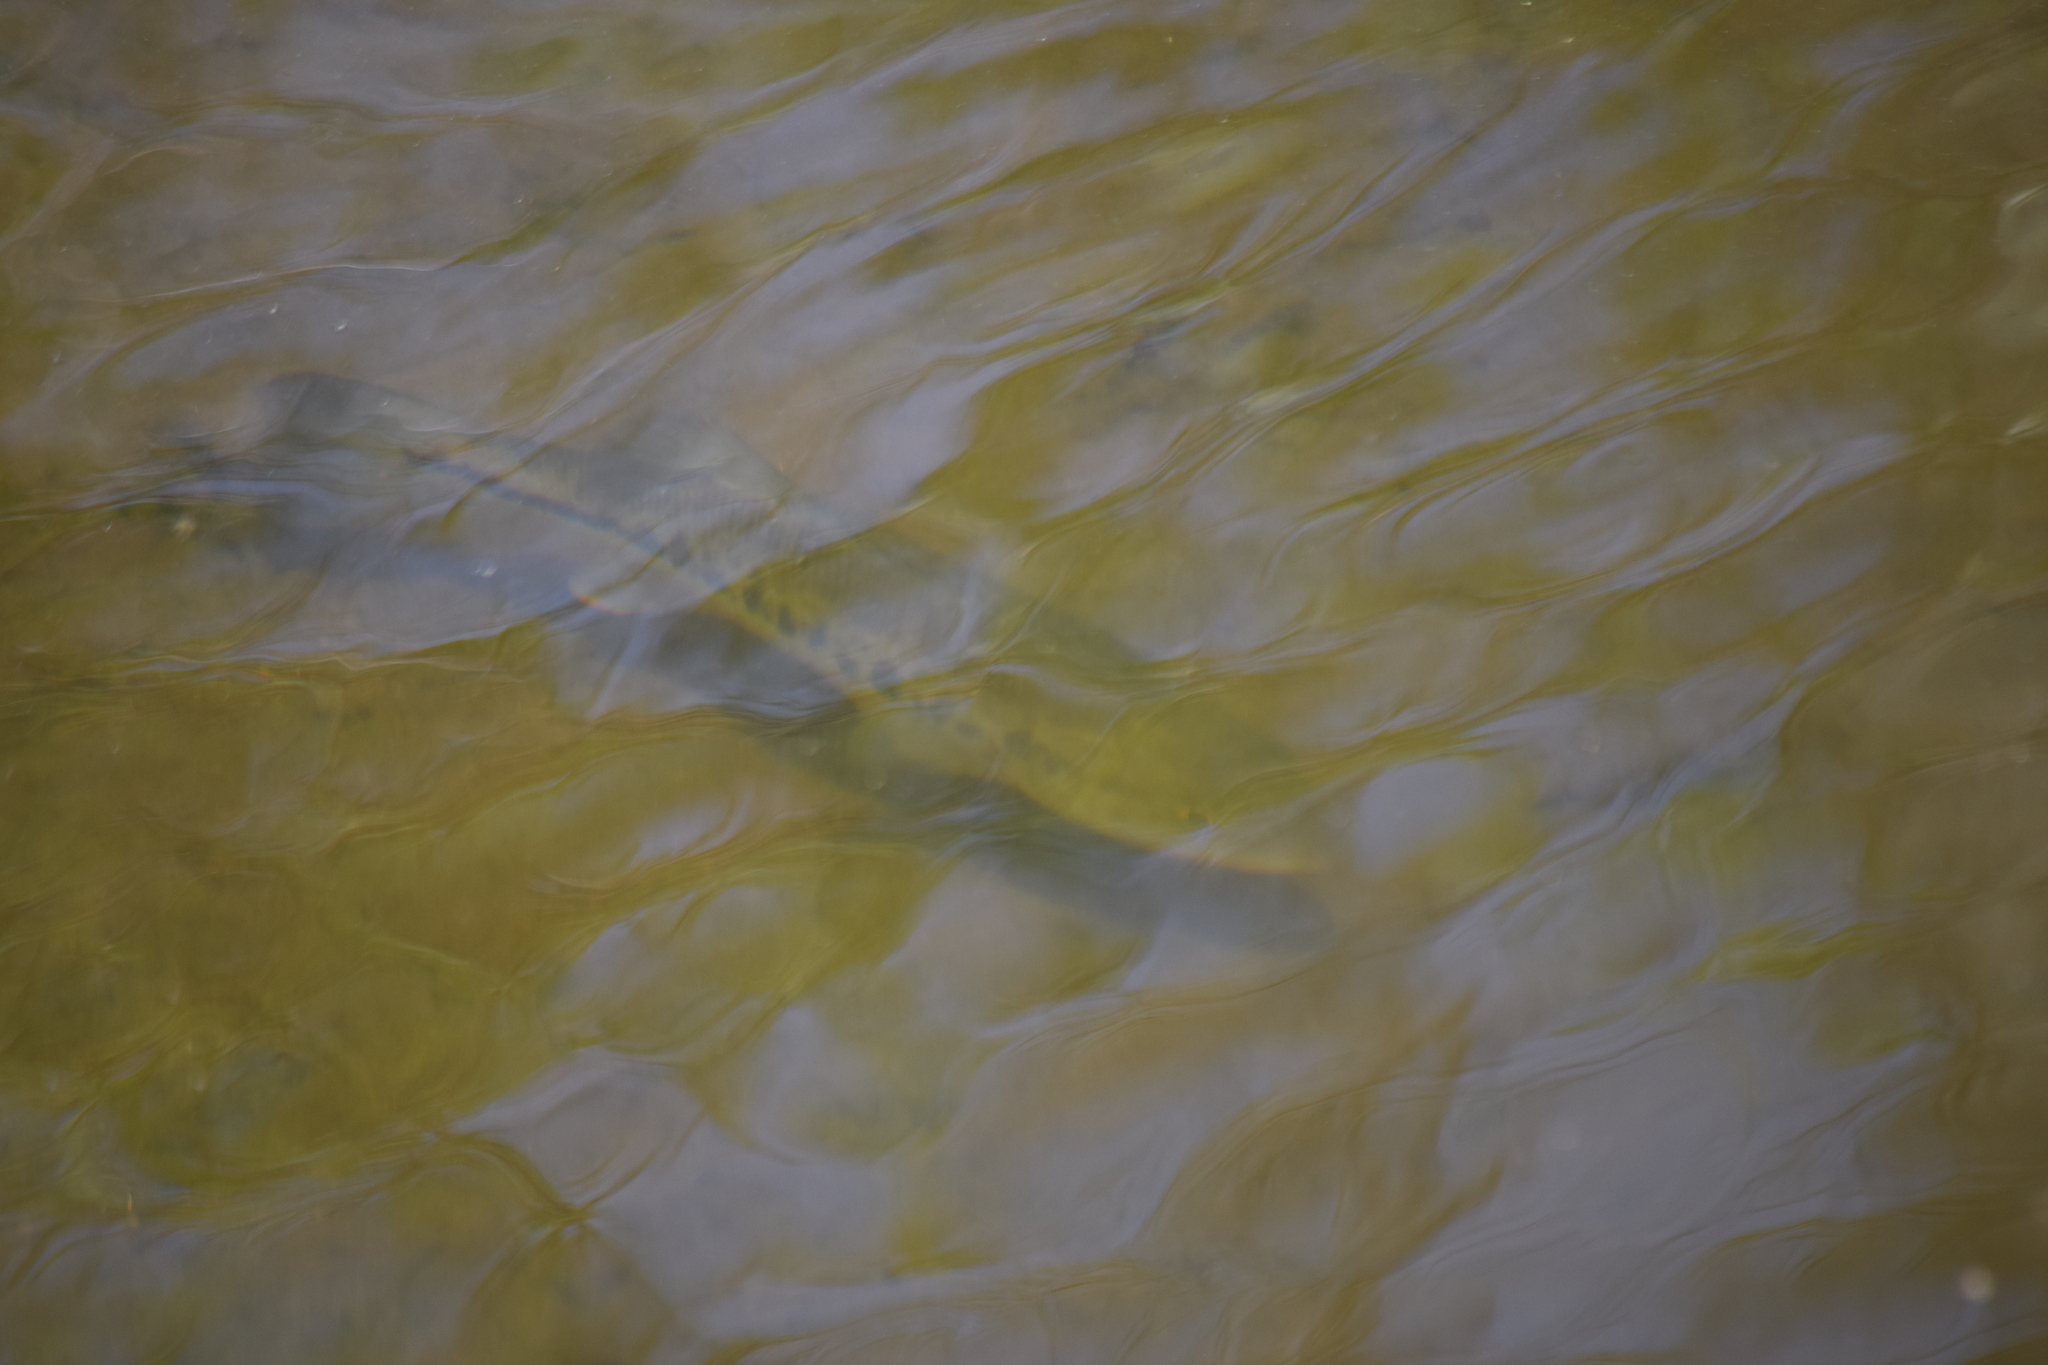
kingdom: Animalia
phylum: Chordata
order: Perciformes
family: Centrarchidae
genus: Micropterus
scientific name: Micropterus
